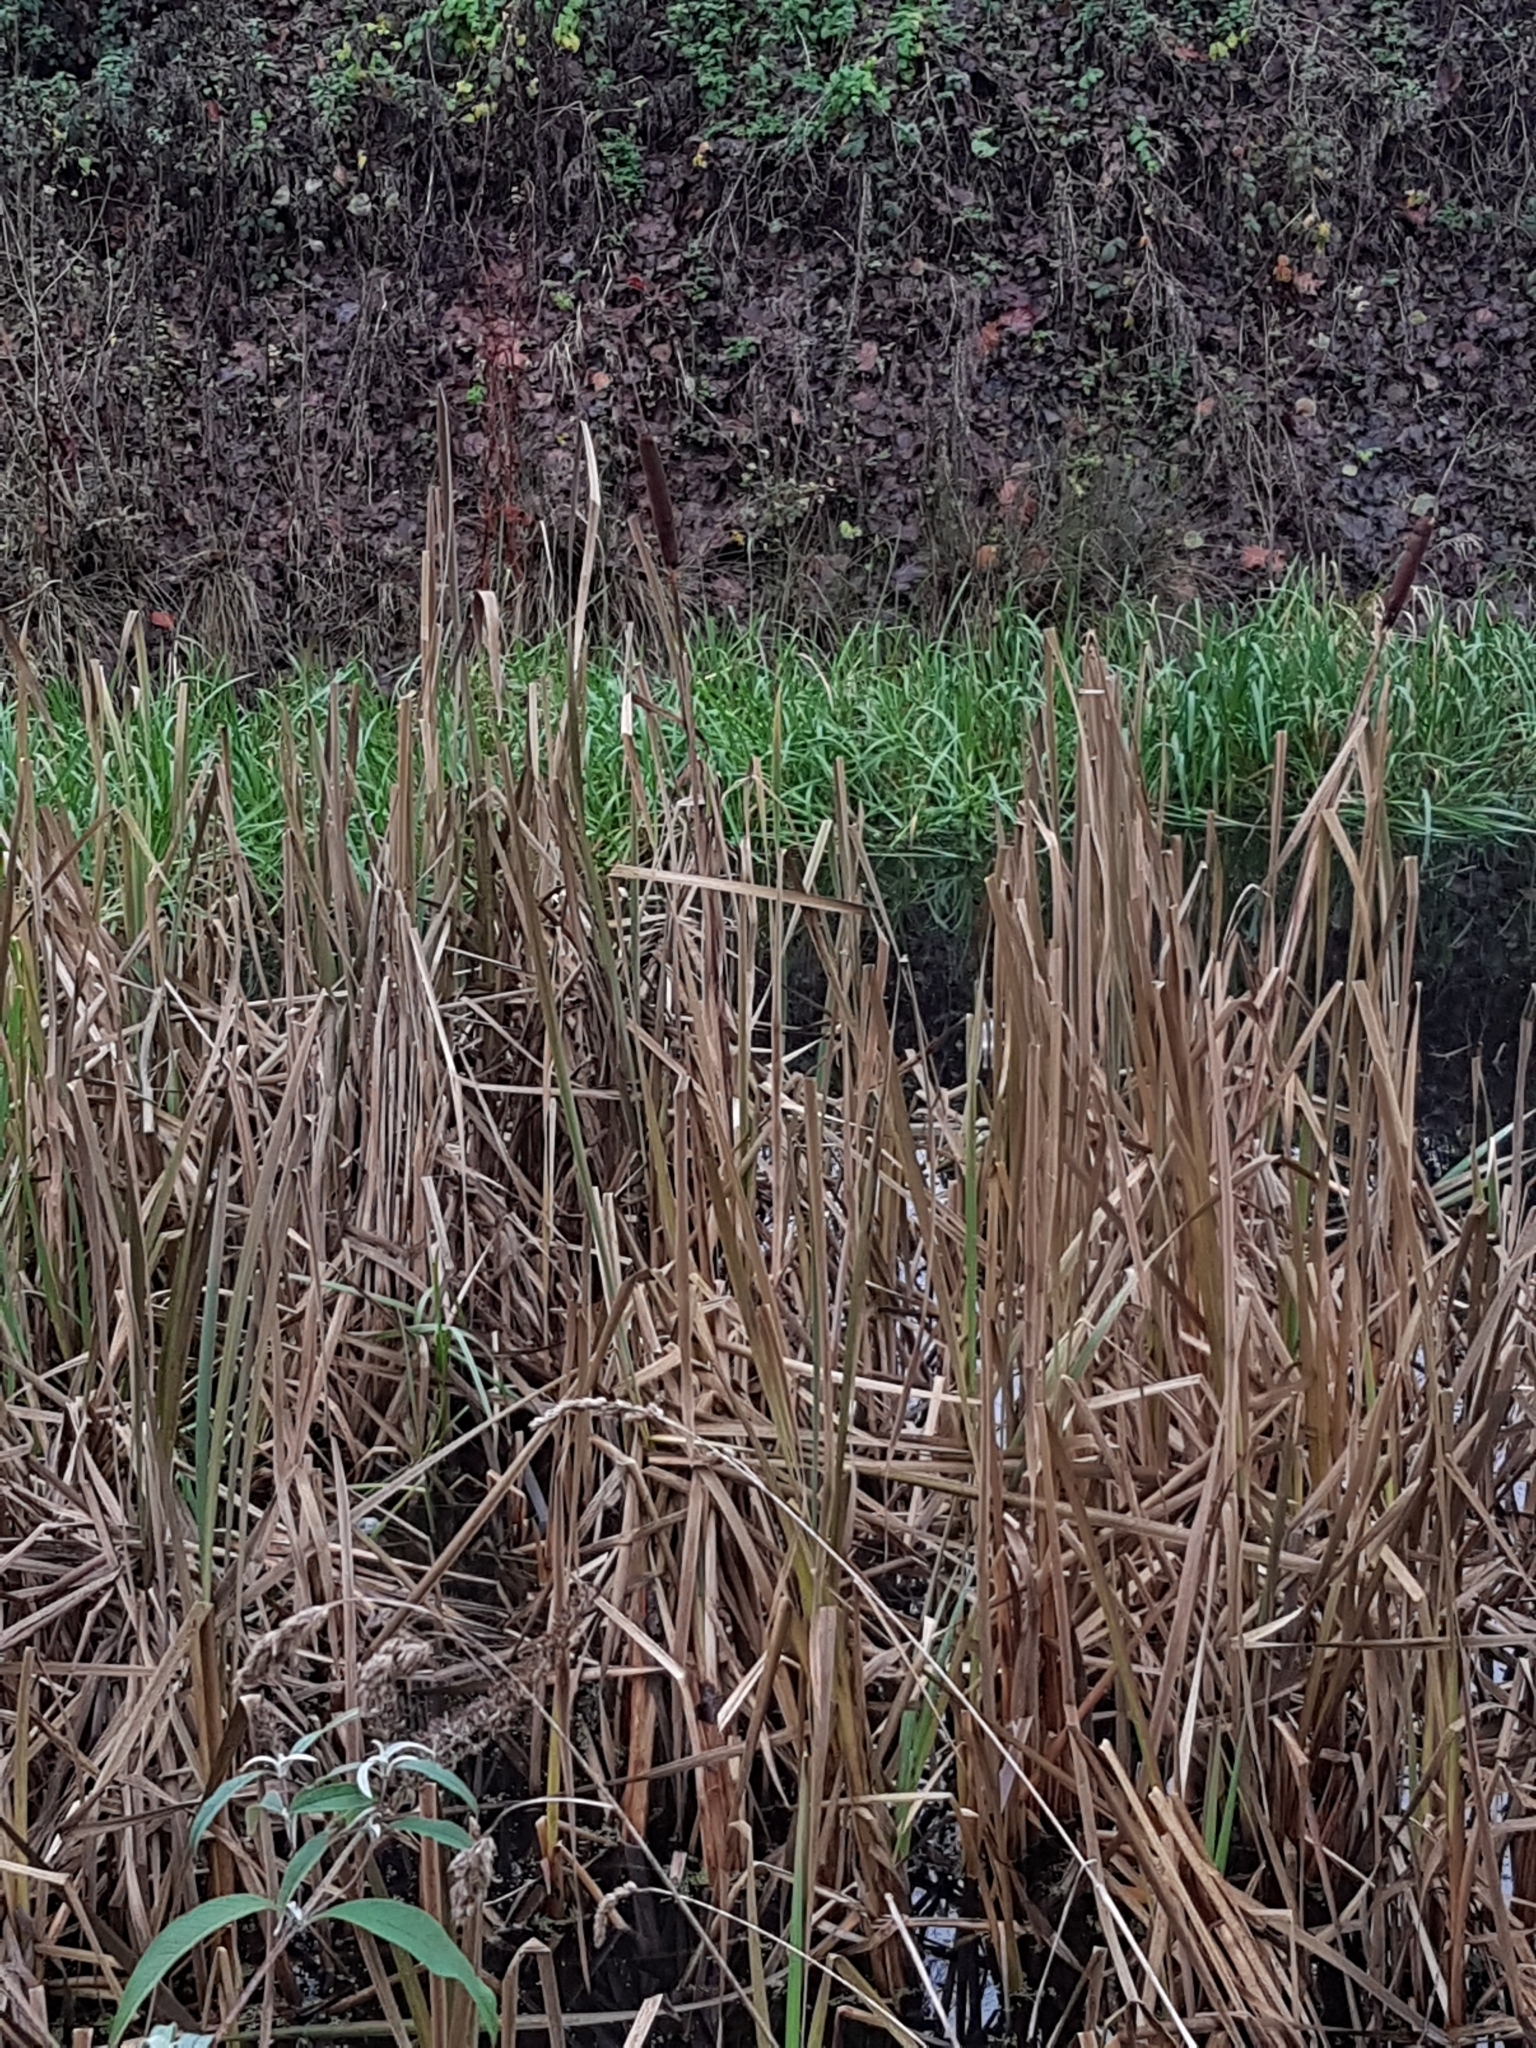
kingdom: Plantae
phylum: Tracheophyta
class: Liliopsida
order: Poales
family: Typhaceae
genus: Typha
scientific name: Typha latifolia
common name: Broadleaf cattail
